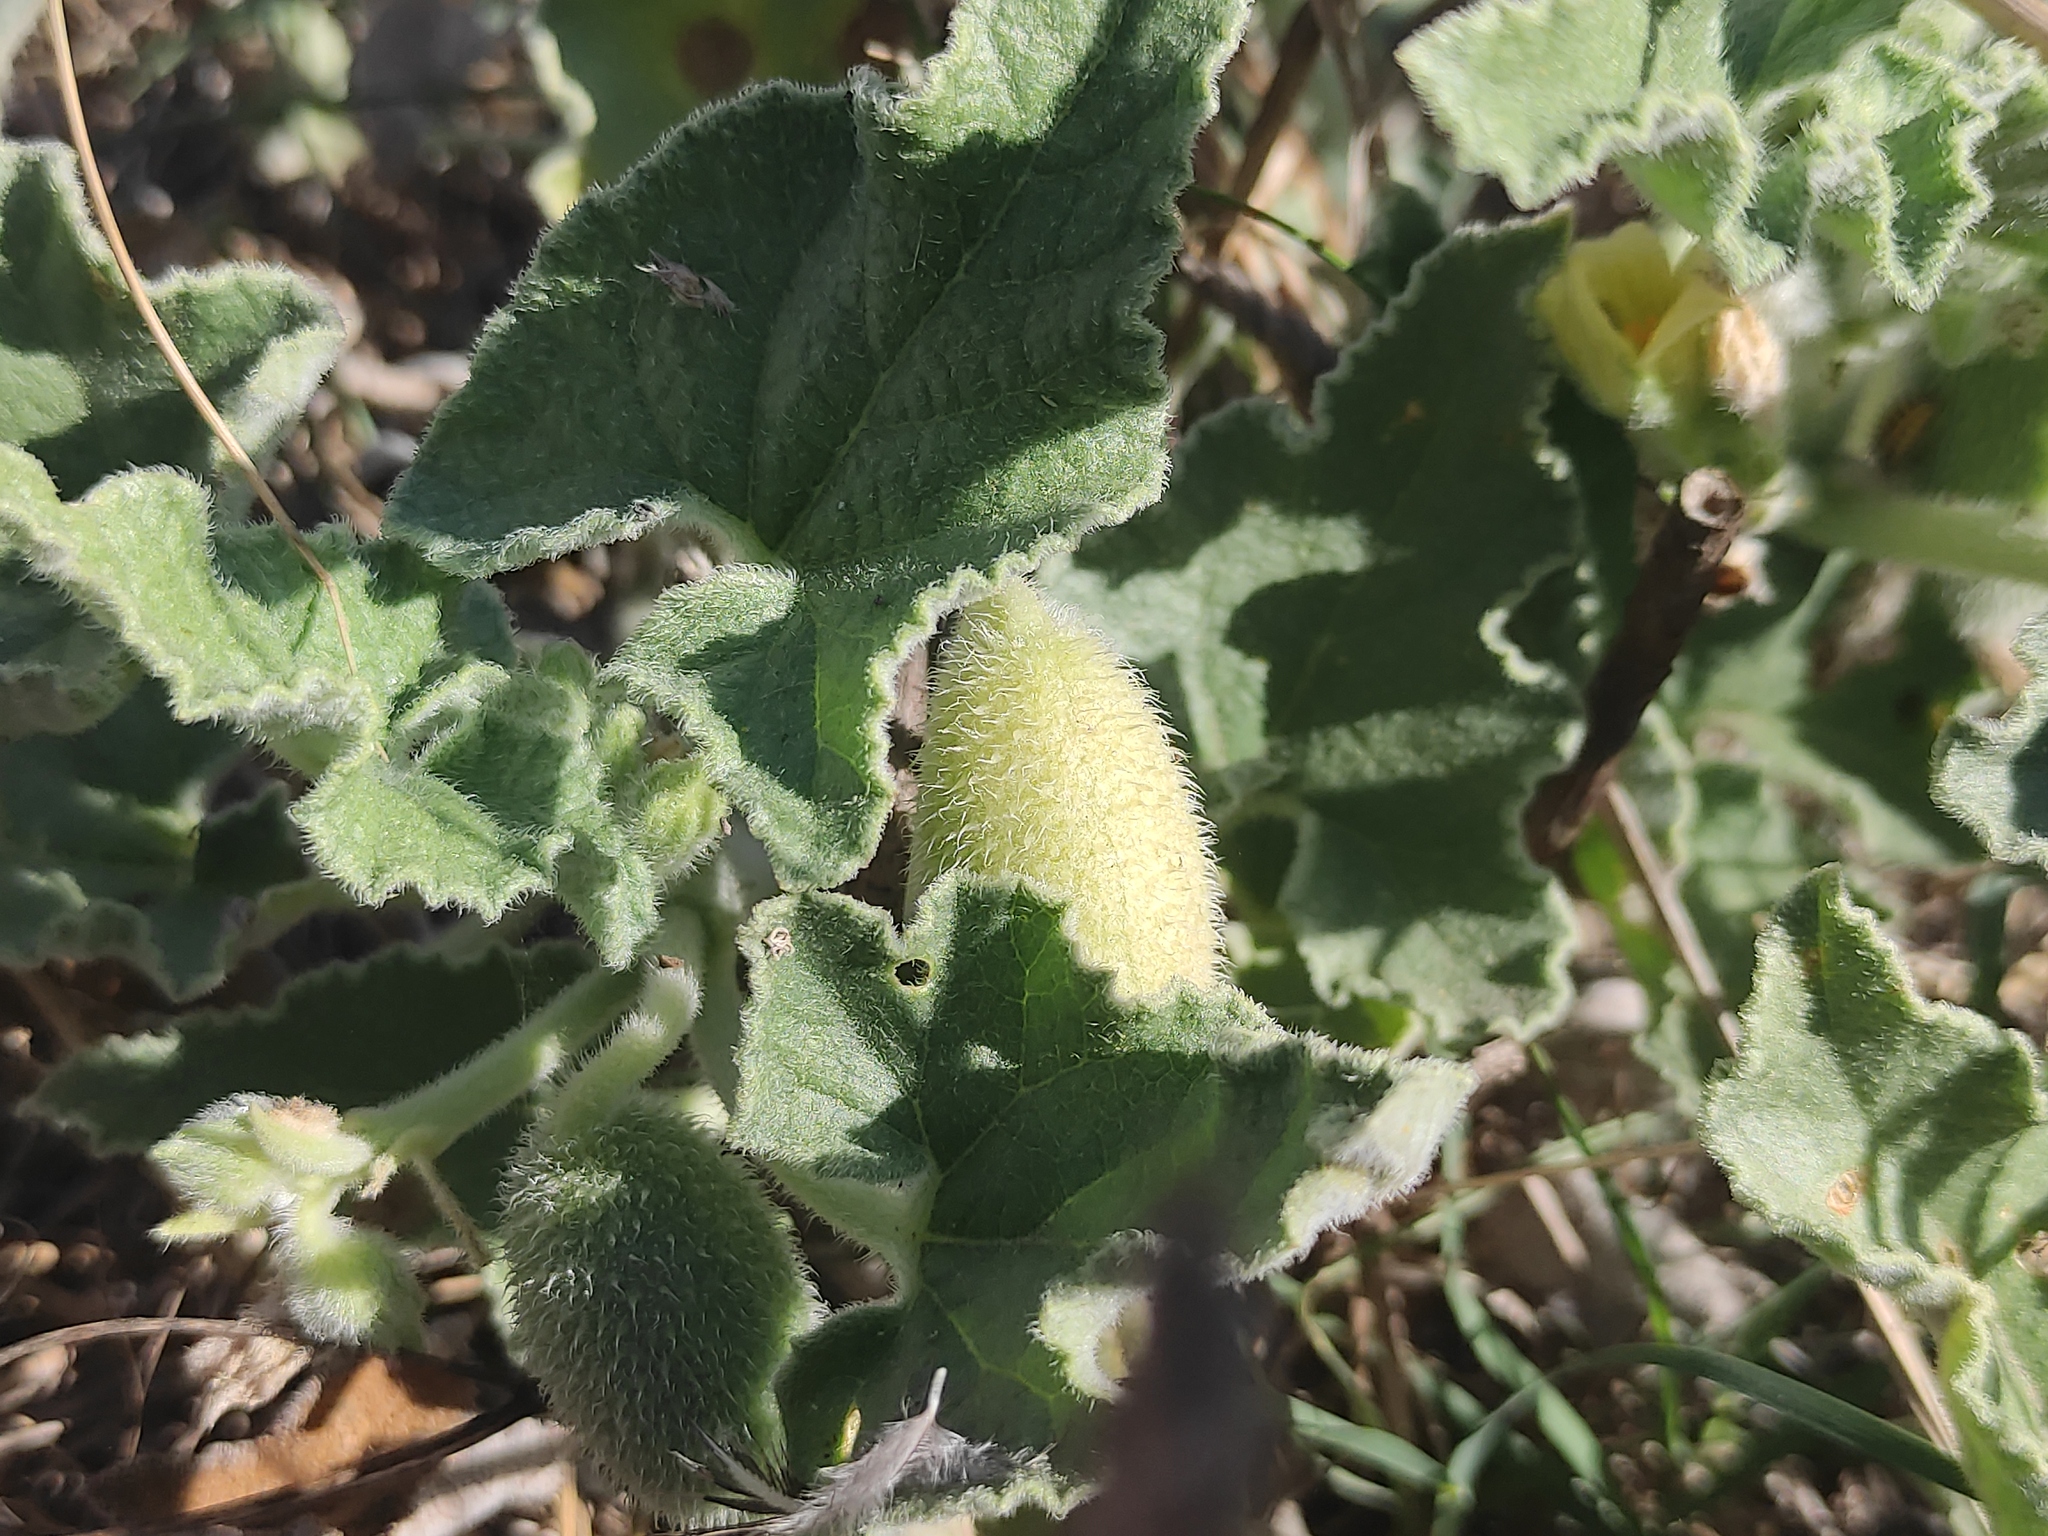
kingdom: Plantae
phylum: Tracheophyta
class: Magnoliopsida
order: Cucurbitales
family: Cucurbitaceae
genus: Ecballium
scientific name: Ecballium elaterium
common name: Squirting cucumber
